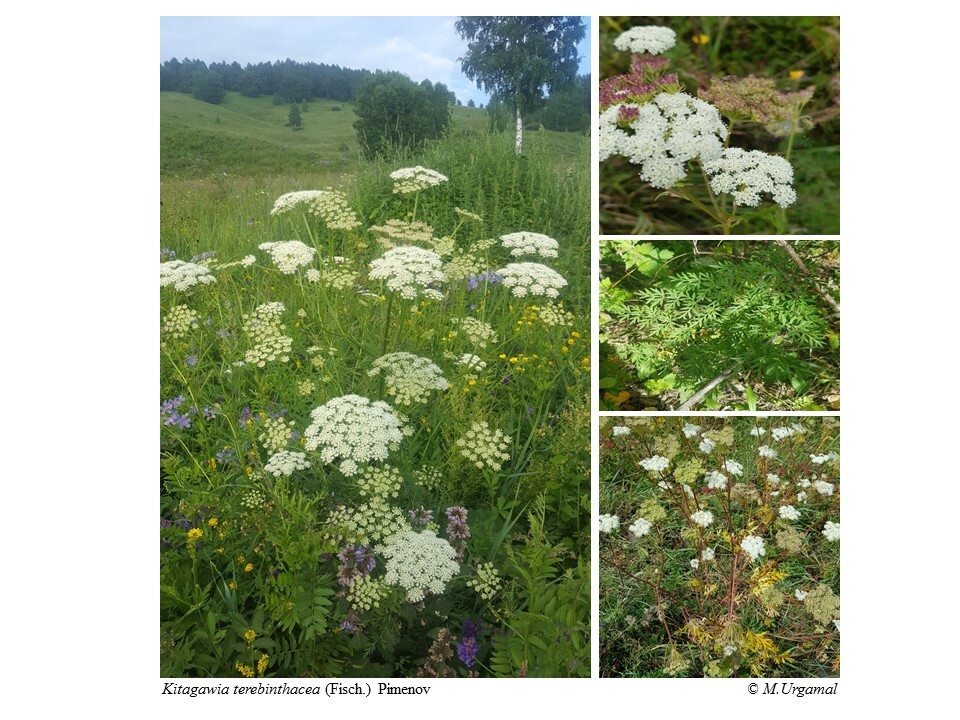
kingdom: Plantae
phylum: Tracheophyta
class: Magnoliopsida
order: Apiales
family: Apiaceae
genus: Kitagawia
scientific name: Kitagawia terebinthacea
